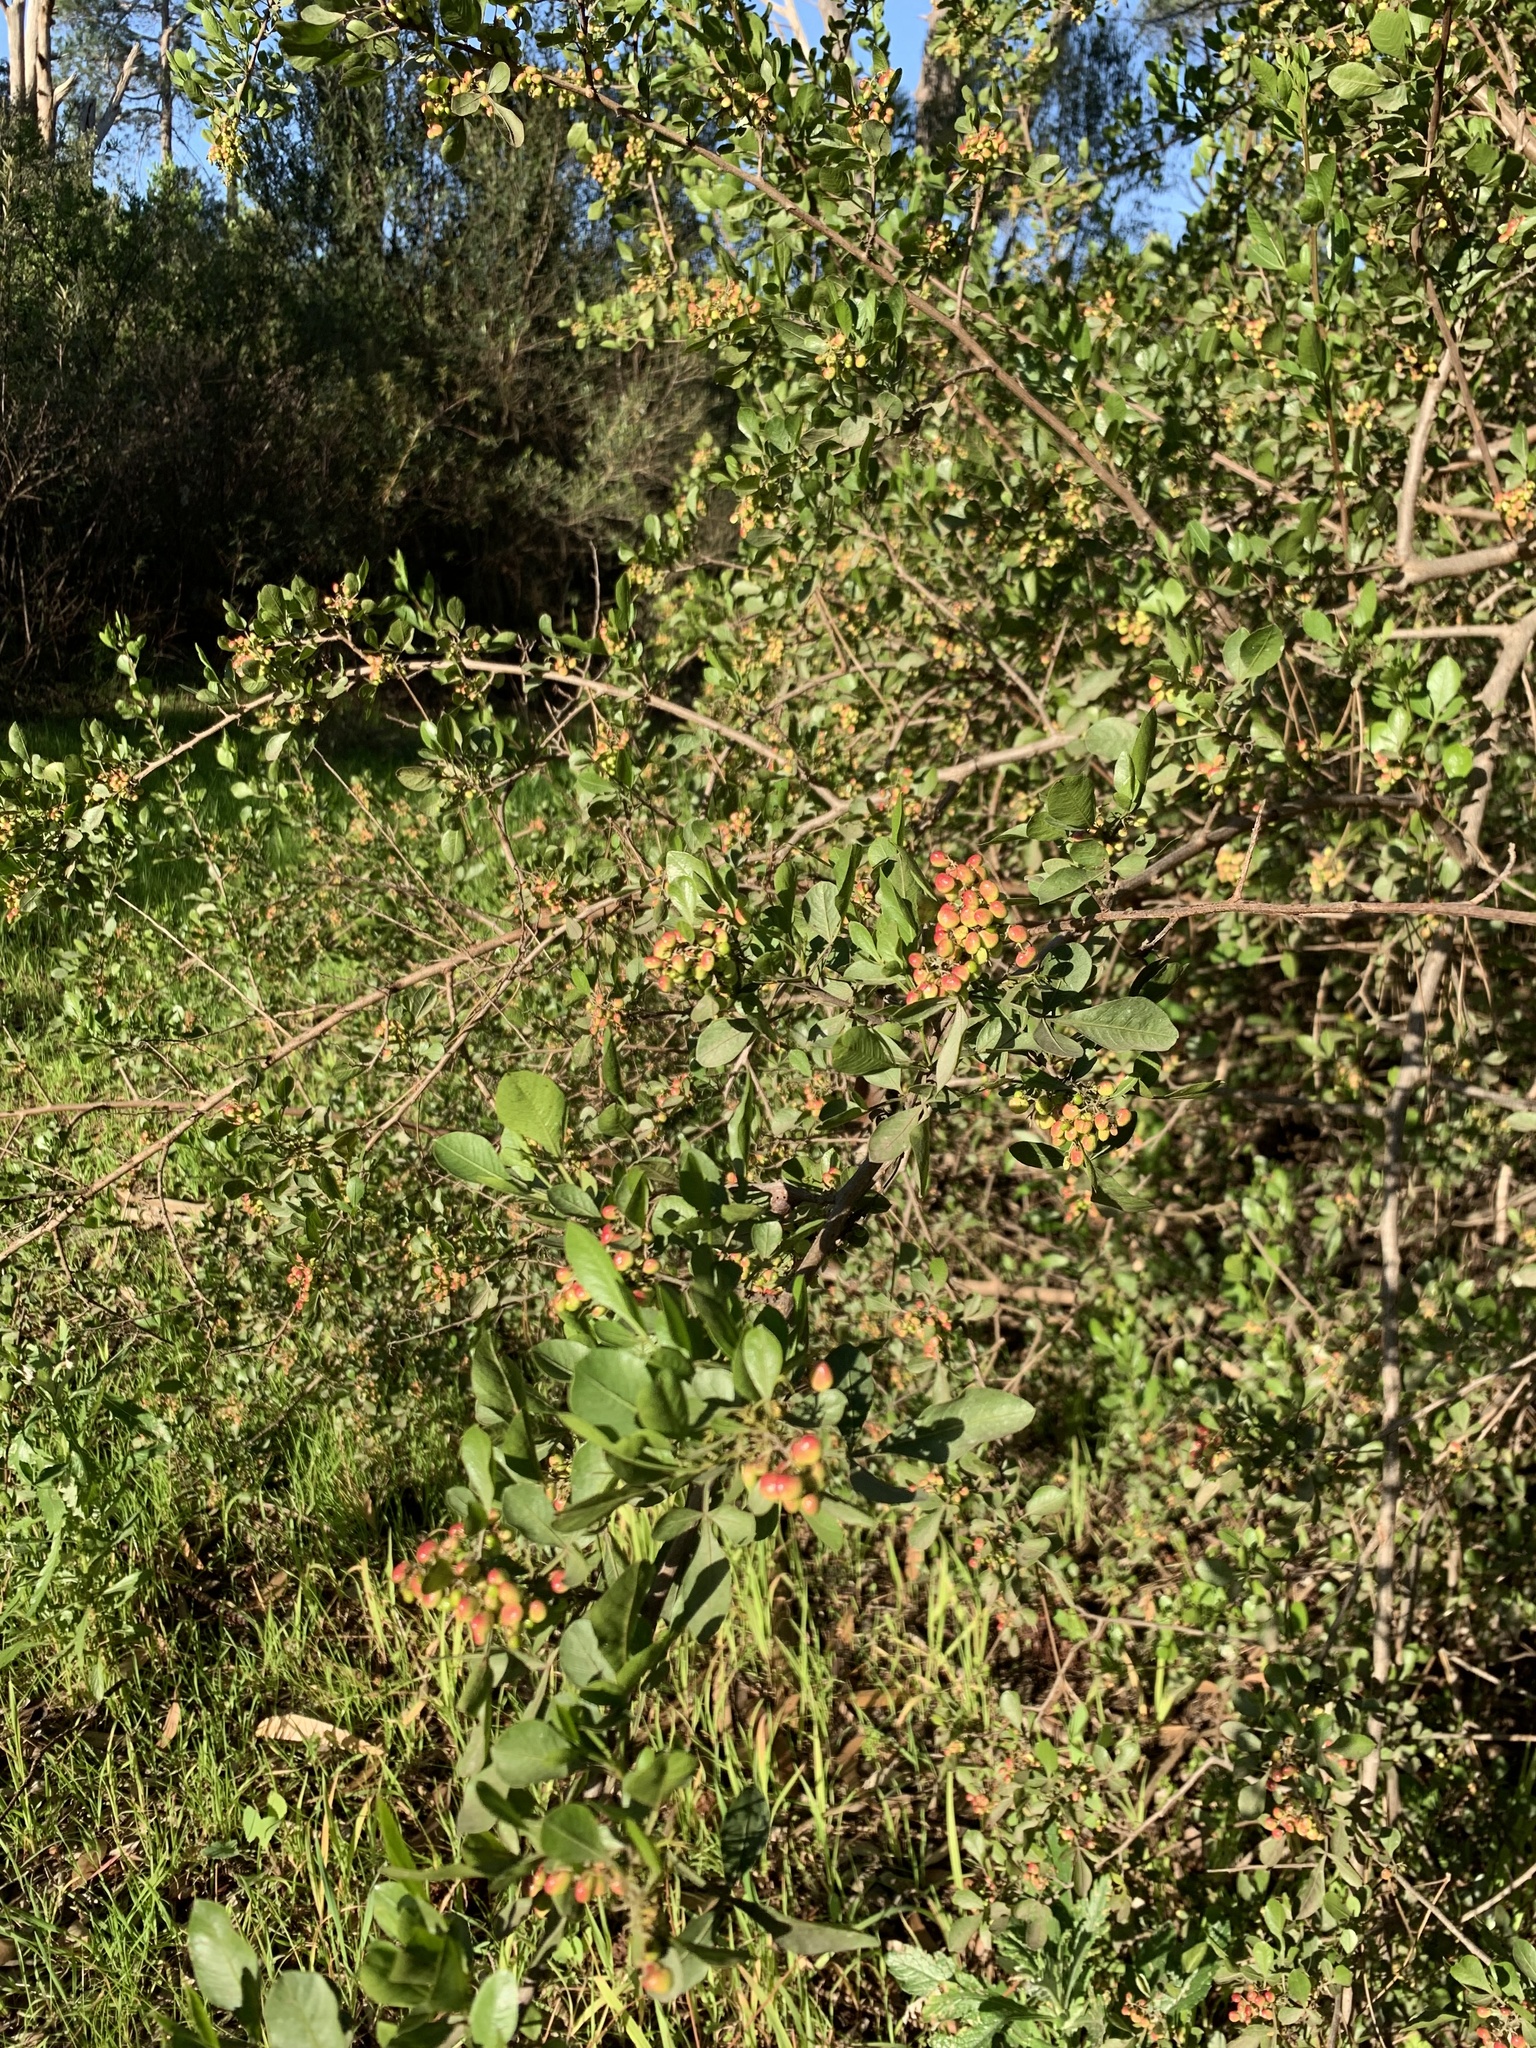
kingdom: Plantae
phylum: Tracheophyta
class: Magnoliopsida
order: Sapindales
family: Anacardiaceae
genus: Searsia
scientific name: Searsia glauca
